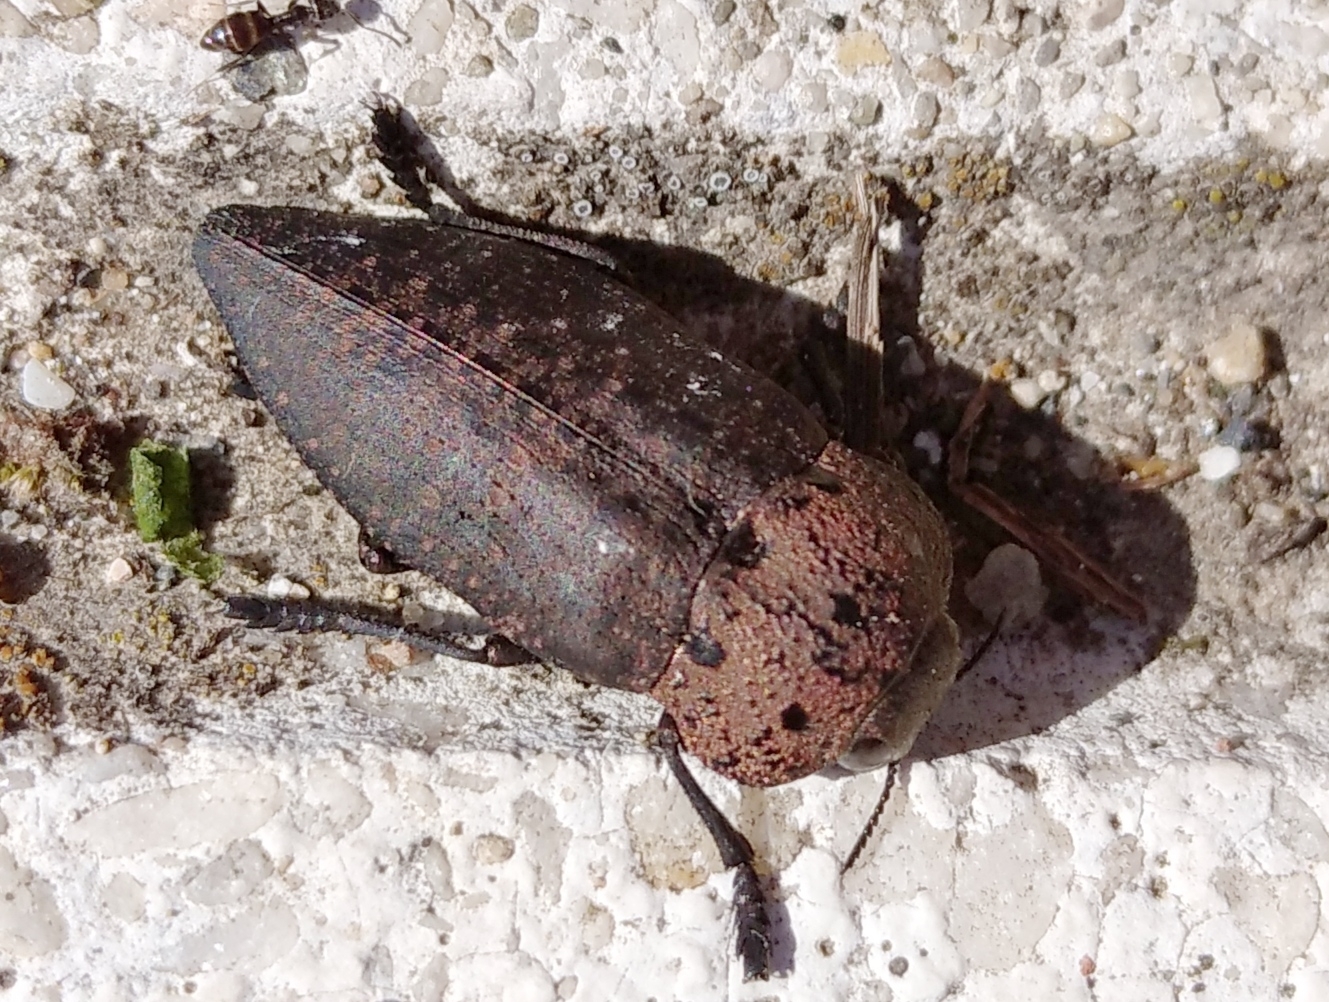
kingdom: Animalia
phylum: Arthropoda
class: Insecta
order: Coleoptera
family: Buprestidae
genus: Capnodis
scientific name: Capnodis tenebricosa
